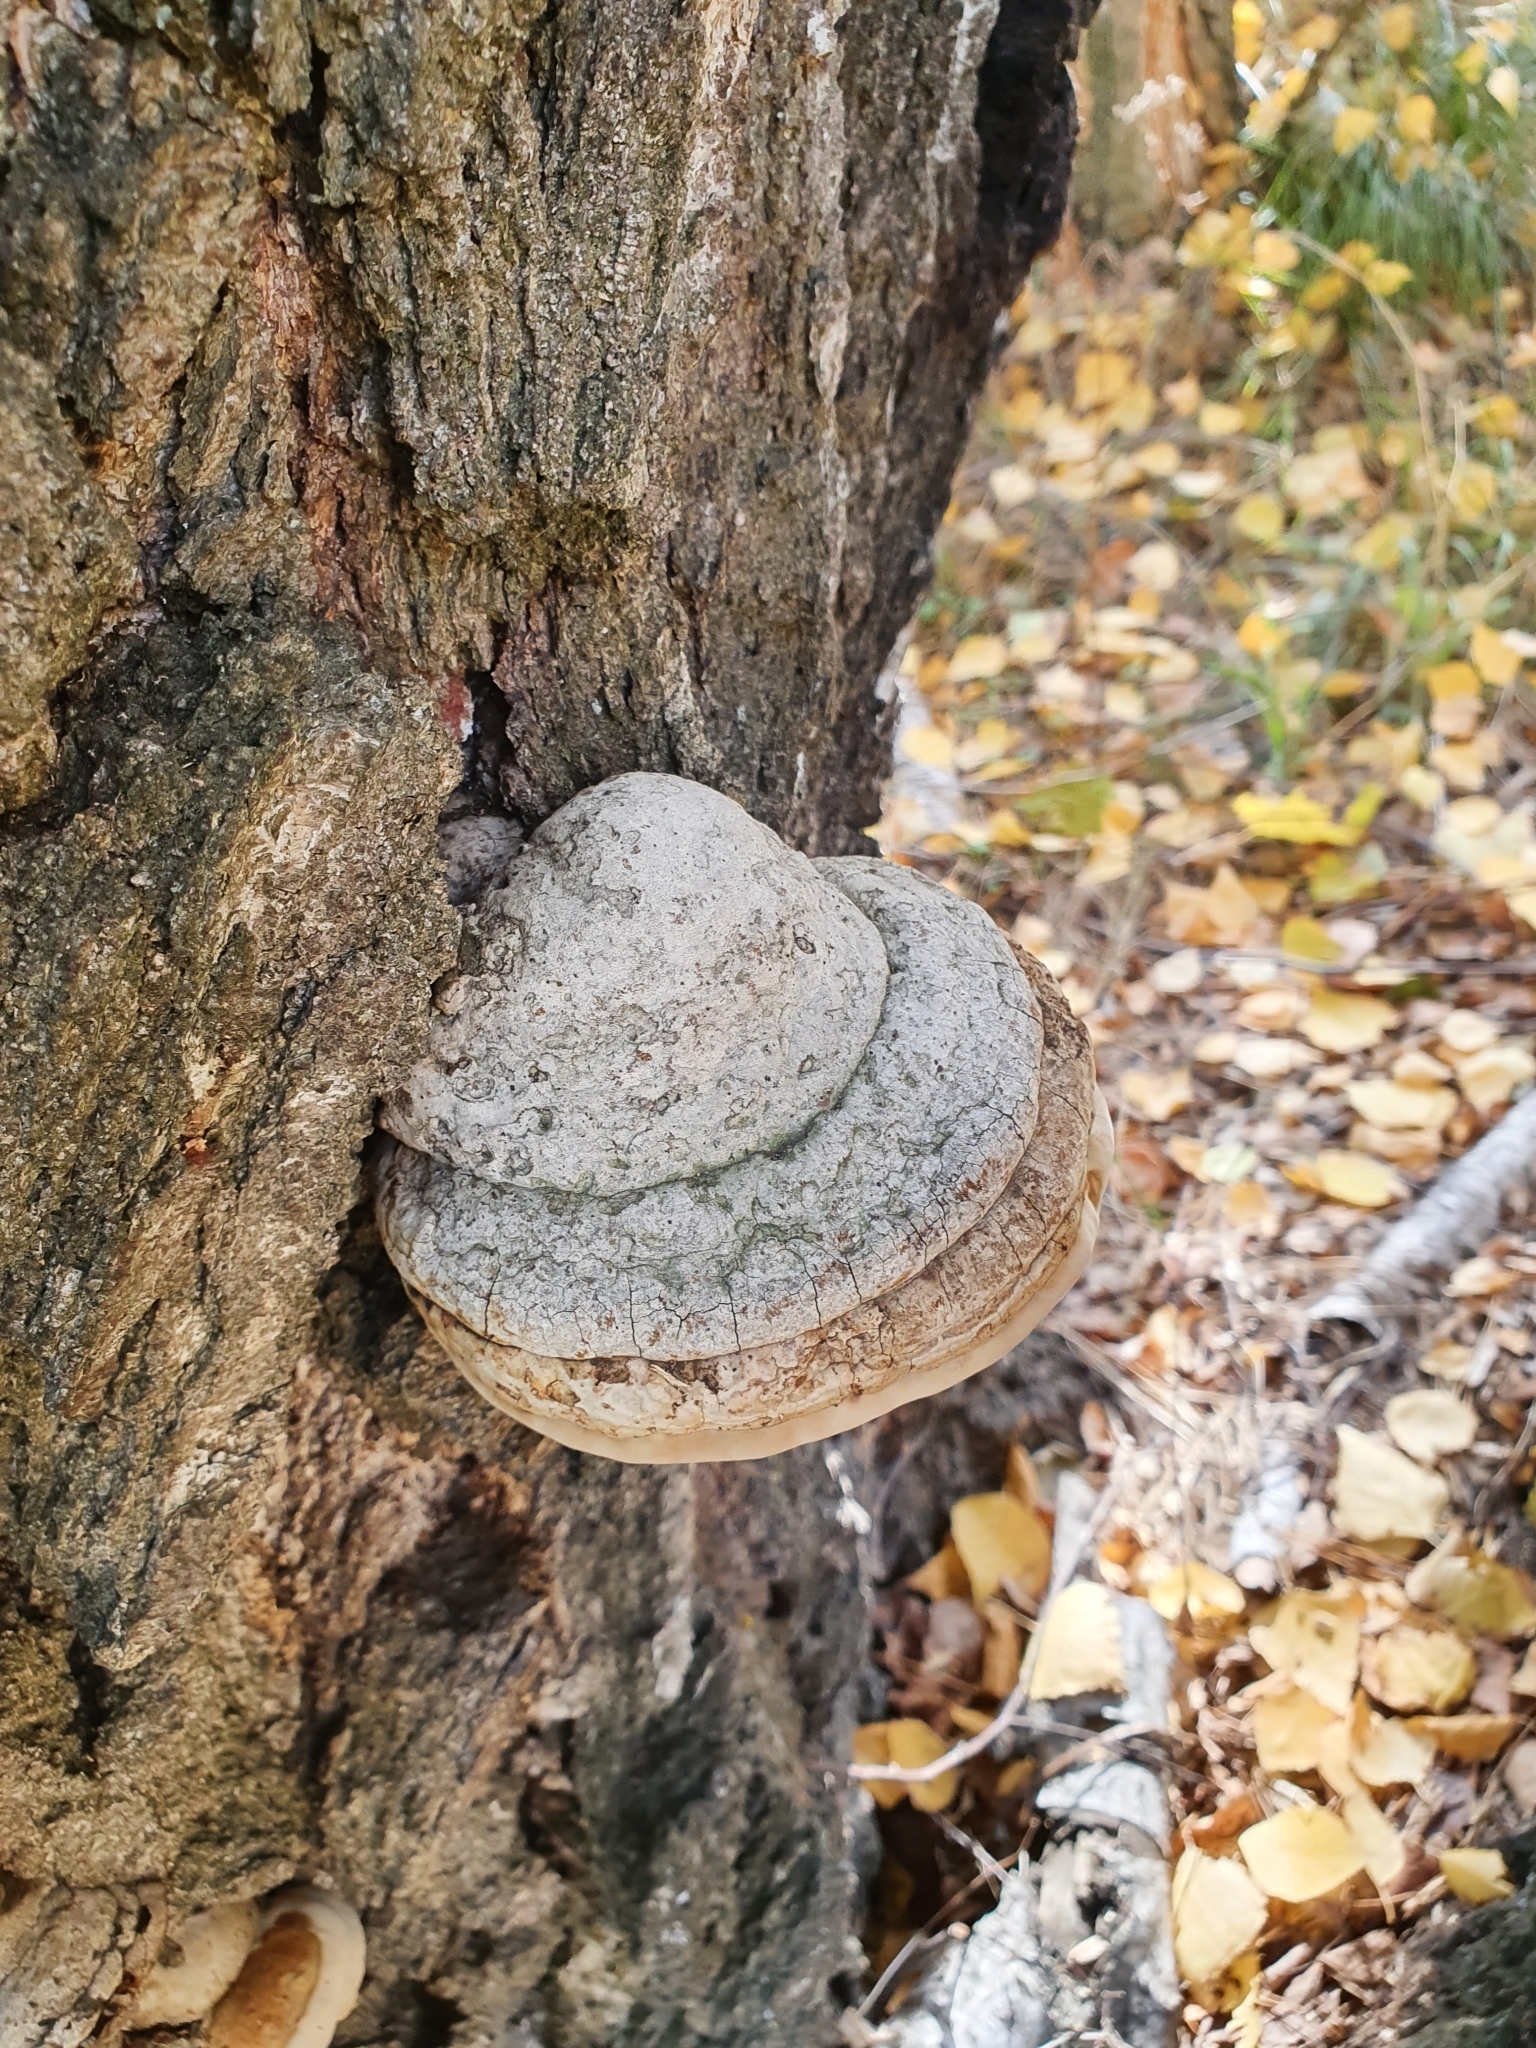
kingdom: Fungi
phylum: Basidiomycota
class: Agaricomycetes
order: Polyporales
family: Polyporaceae
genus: Fomes
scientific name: Fomes fomentarius
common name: Hoof fungus
